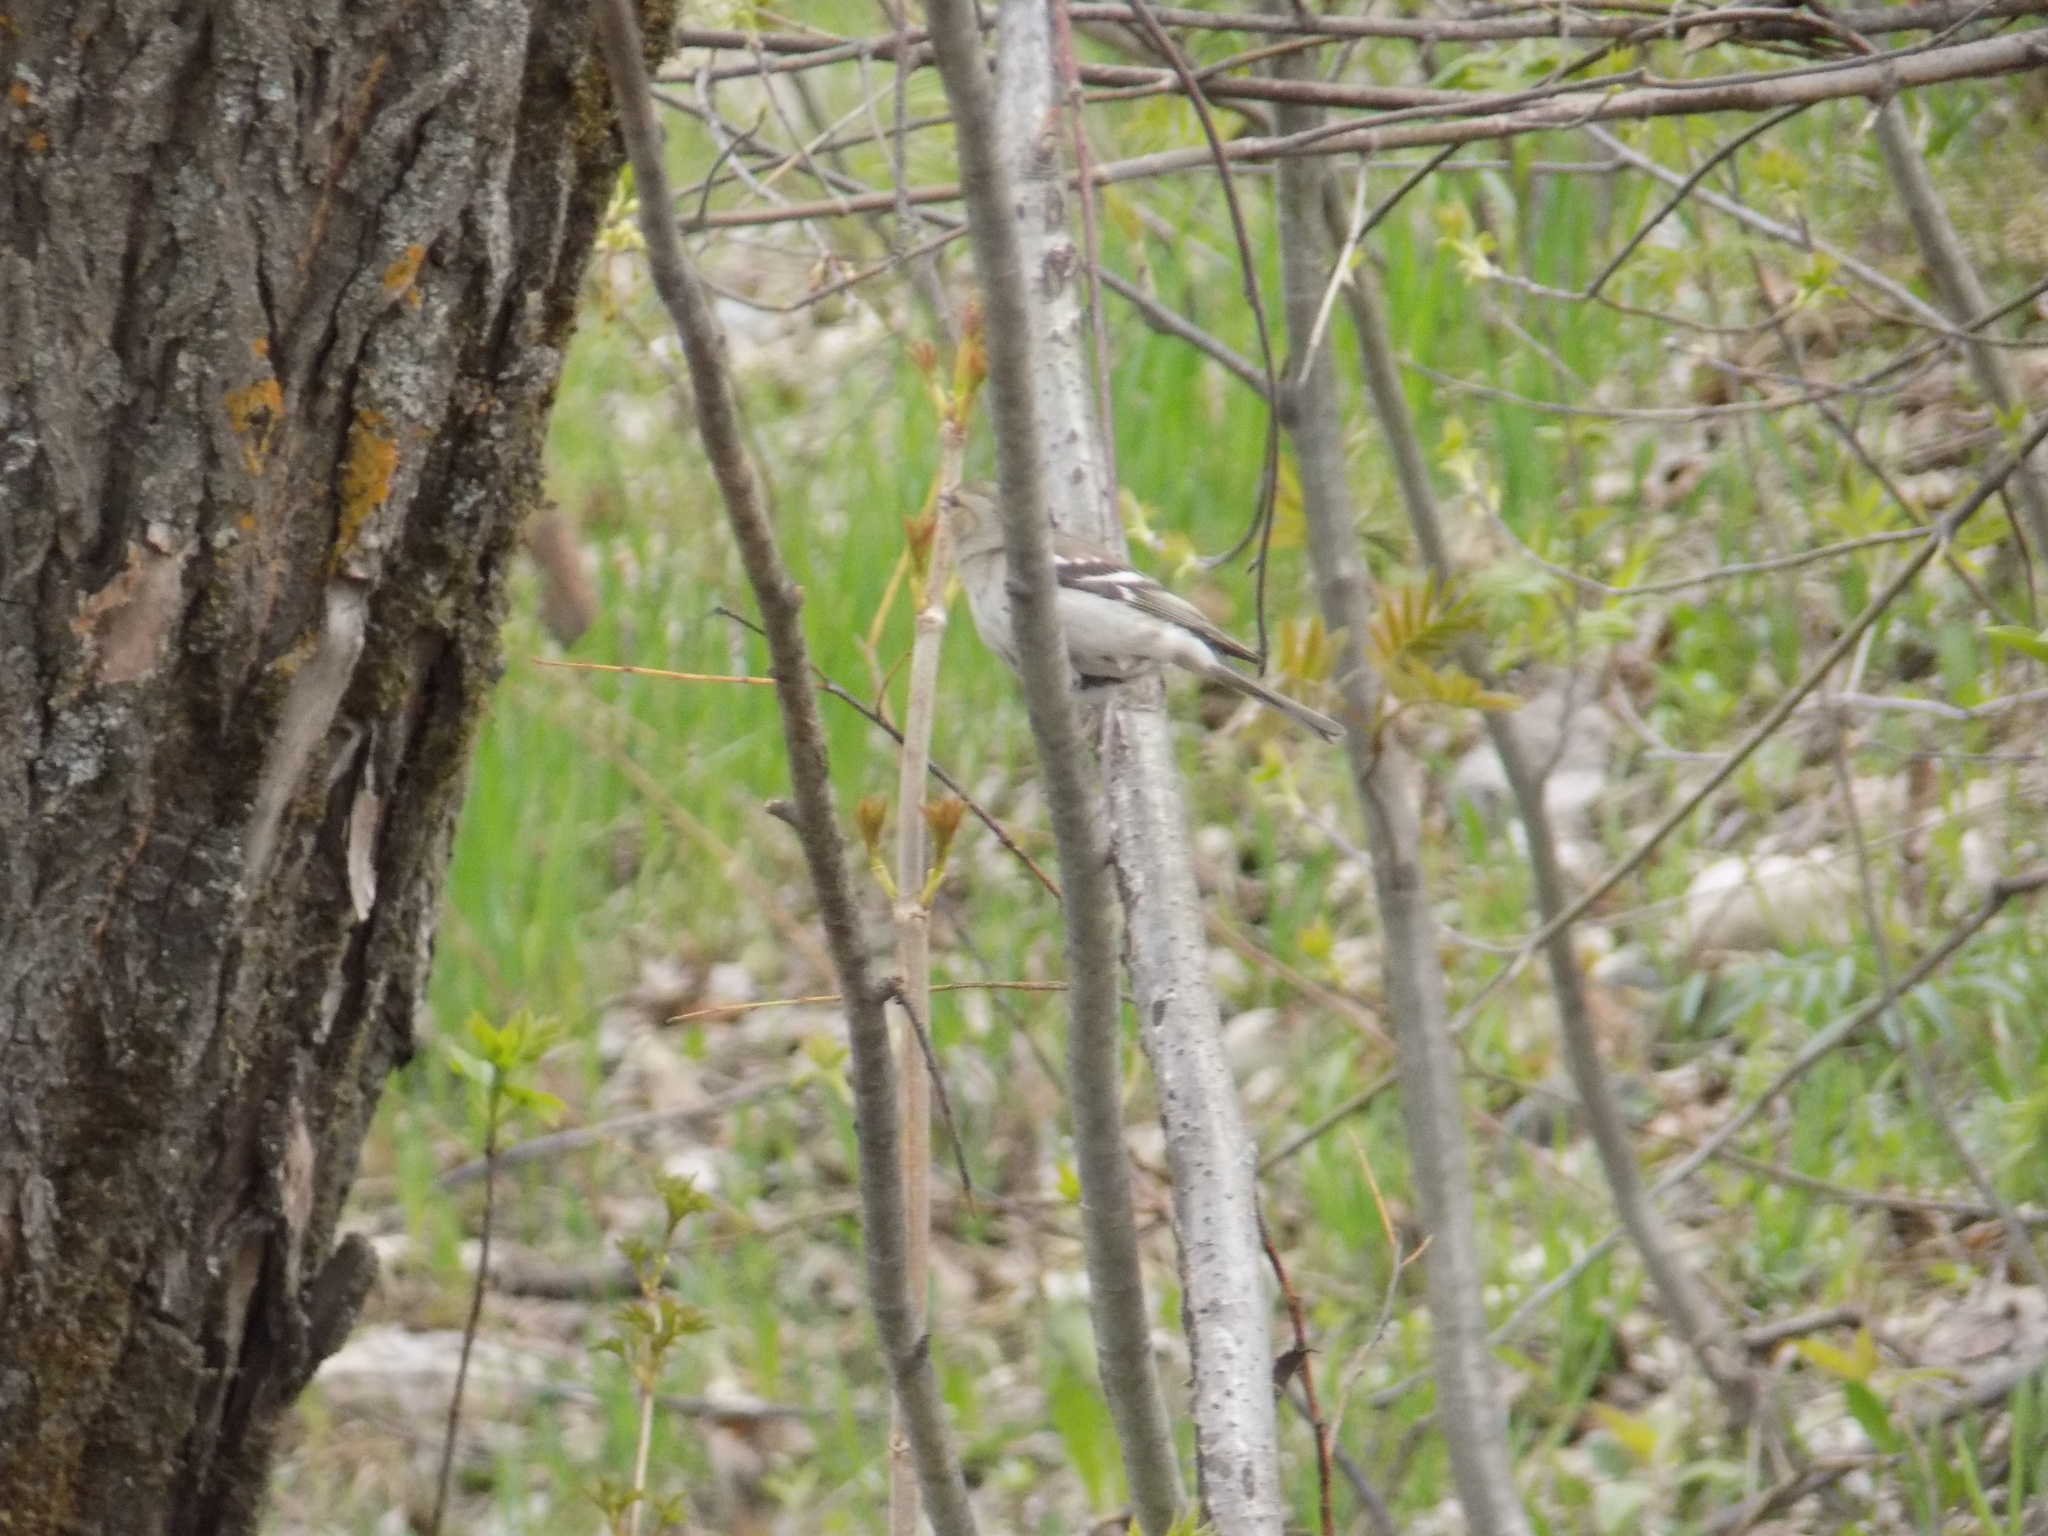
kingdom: Animalia
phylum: Chordata
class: Aves
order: Passeriformes
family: Fringillidae
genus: Fringilla
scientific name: Fringilla coelebs
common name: Common chaffinch
